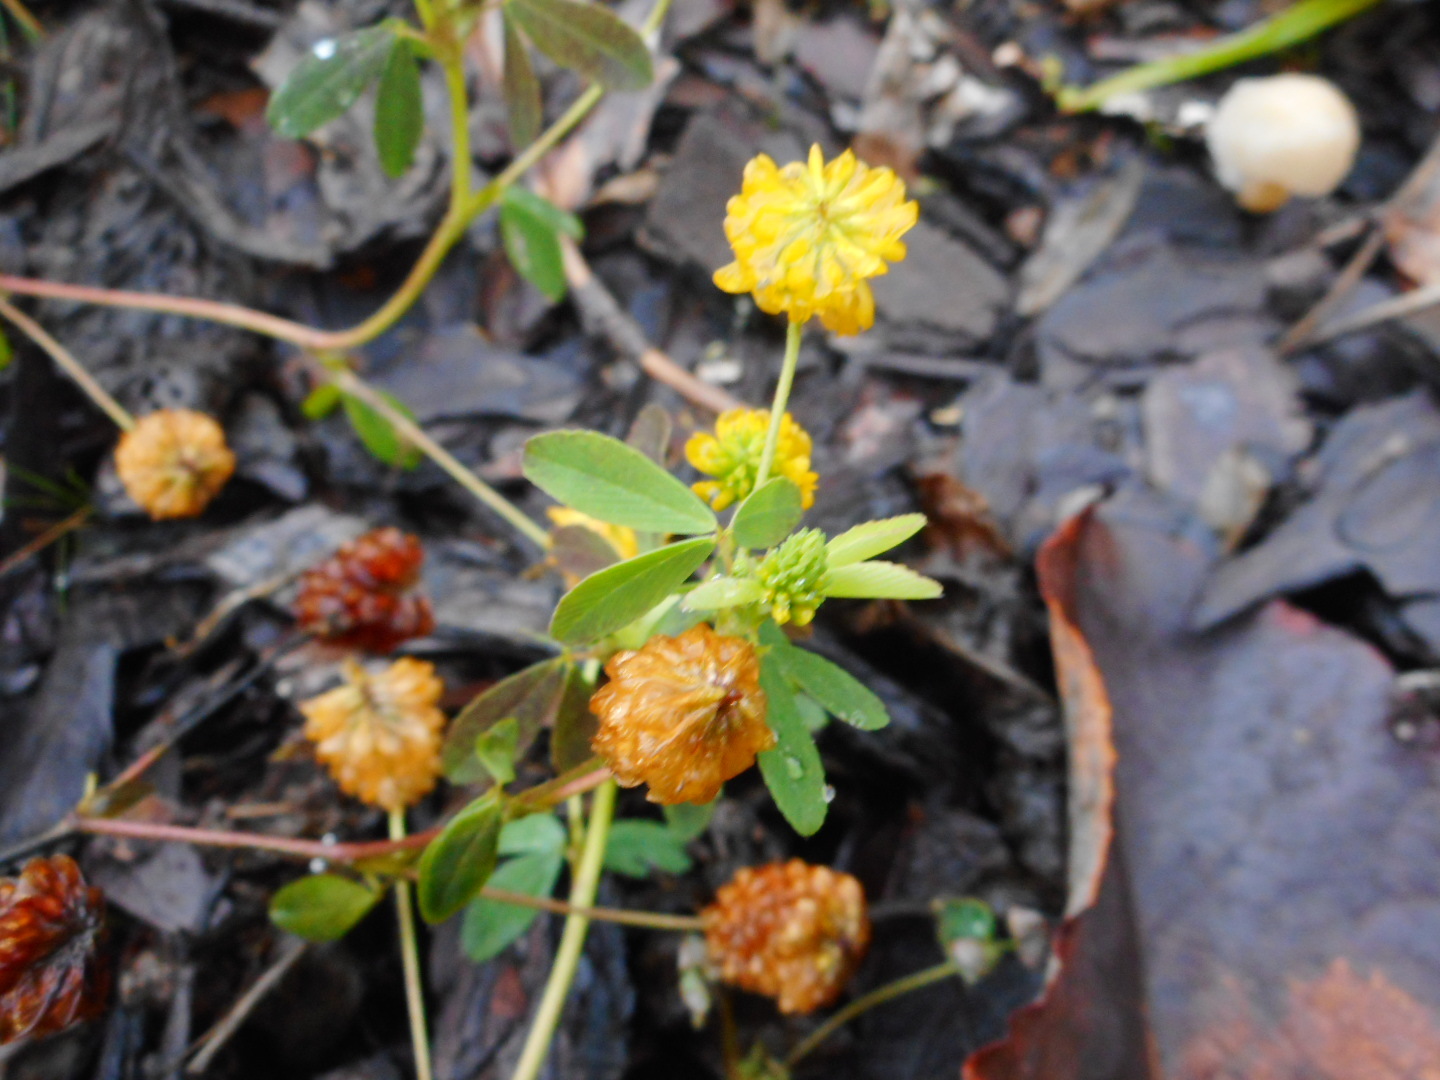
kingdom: Plantae
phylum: Tracheophyta
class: Magnoliopsida
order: Fabales
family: Fabaceae
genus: Trifolium
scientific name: Trifolium aureum
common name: Golden clover
